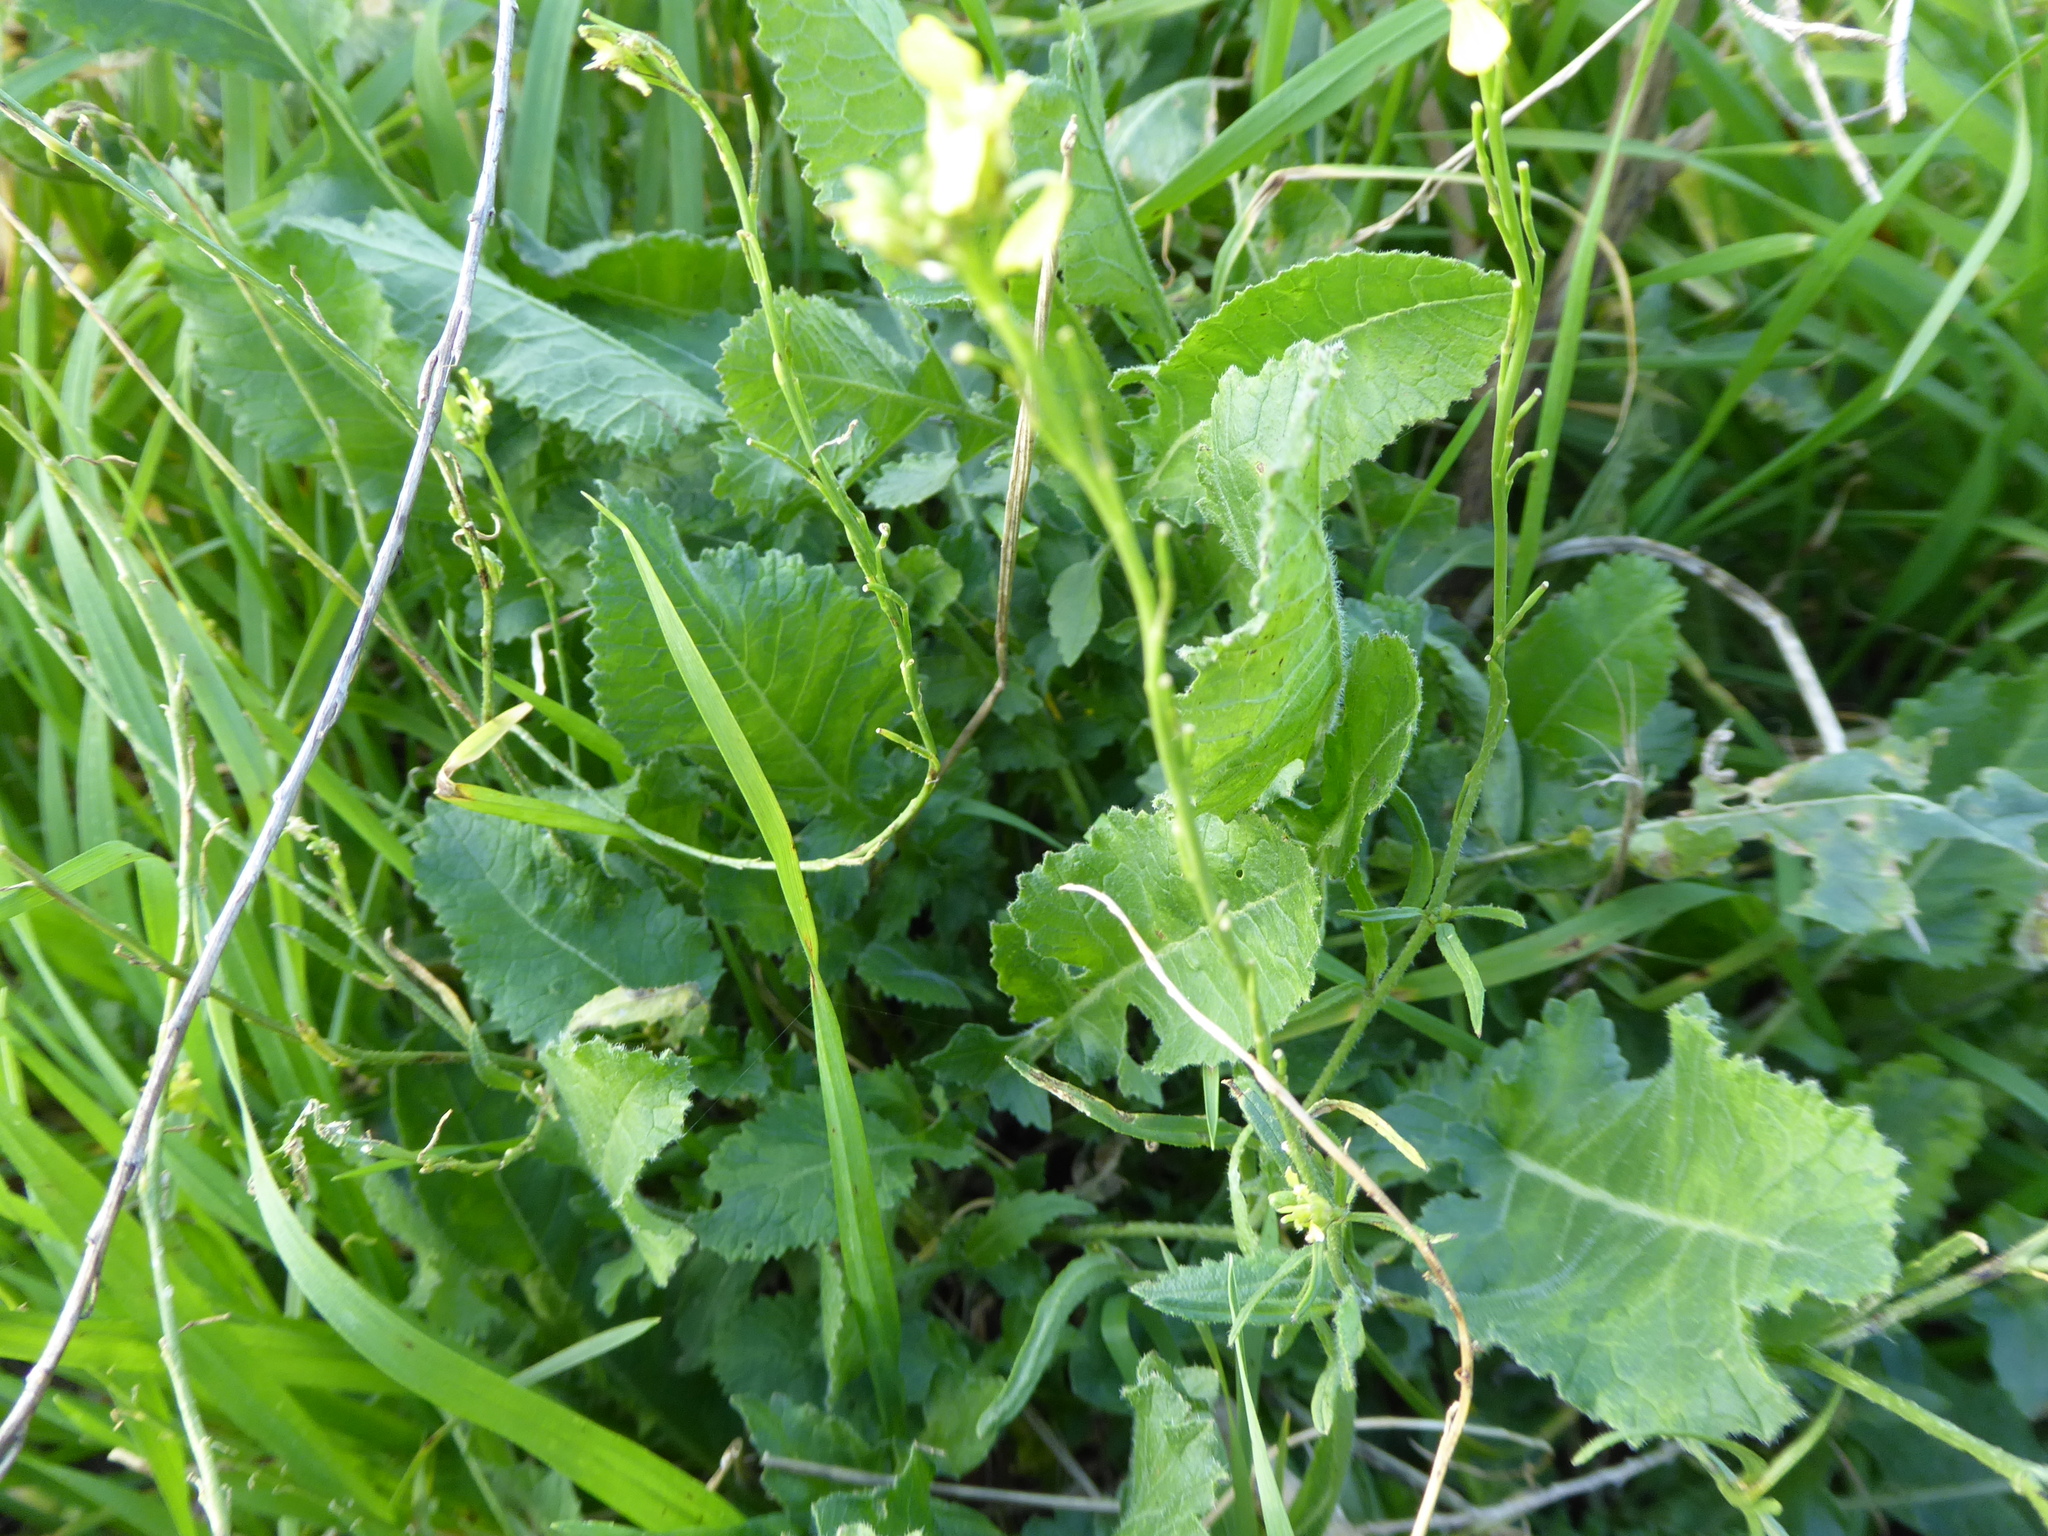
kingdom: Plantae
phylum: Tracheophyta
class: Magnoliopsida
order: Brassicales
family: Brassicaceae
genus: Hirschfeldia
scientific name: Hirschfeldia incana
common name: Hoary mustard
